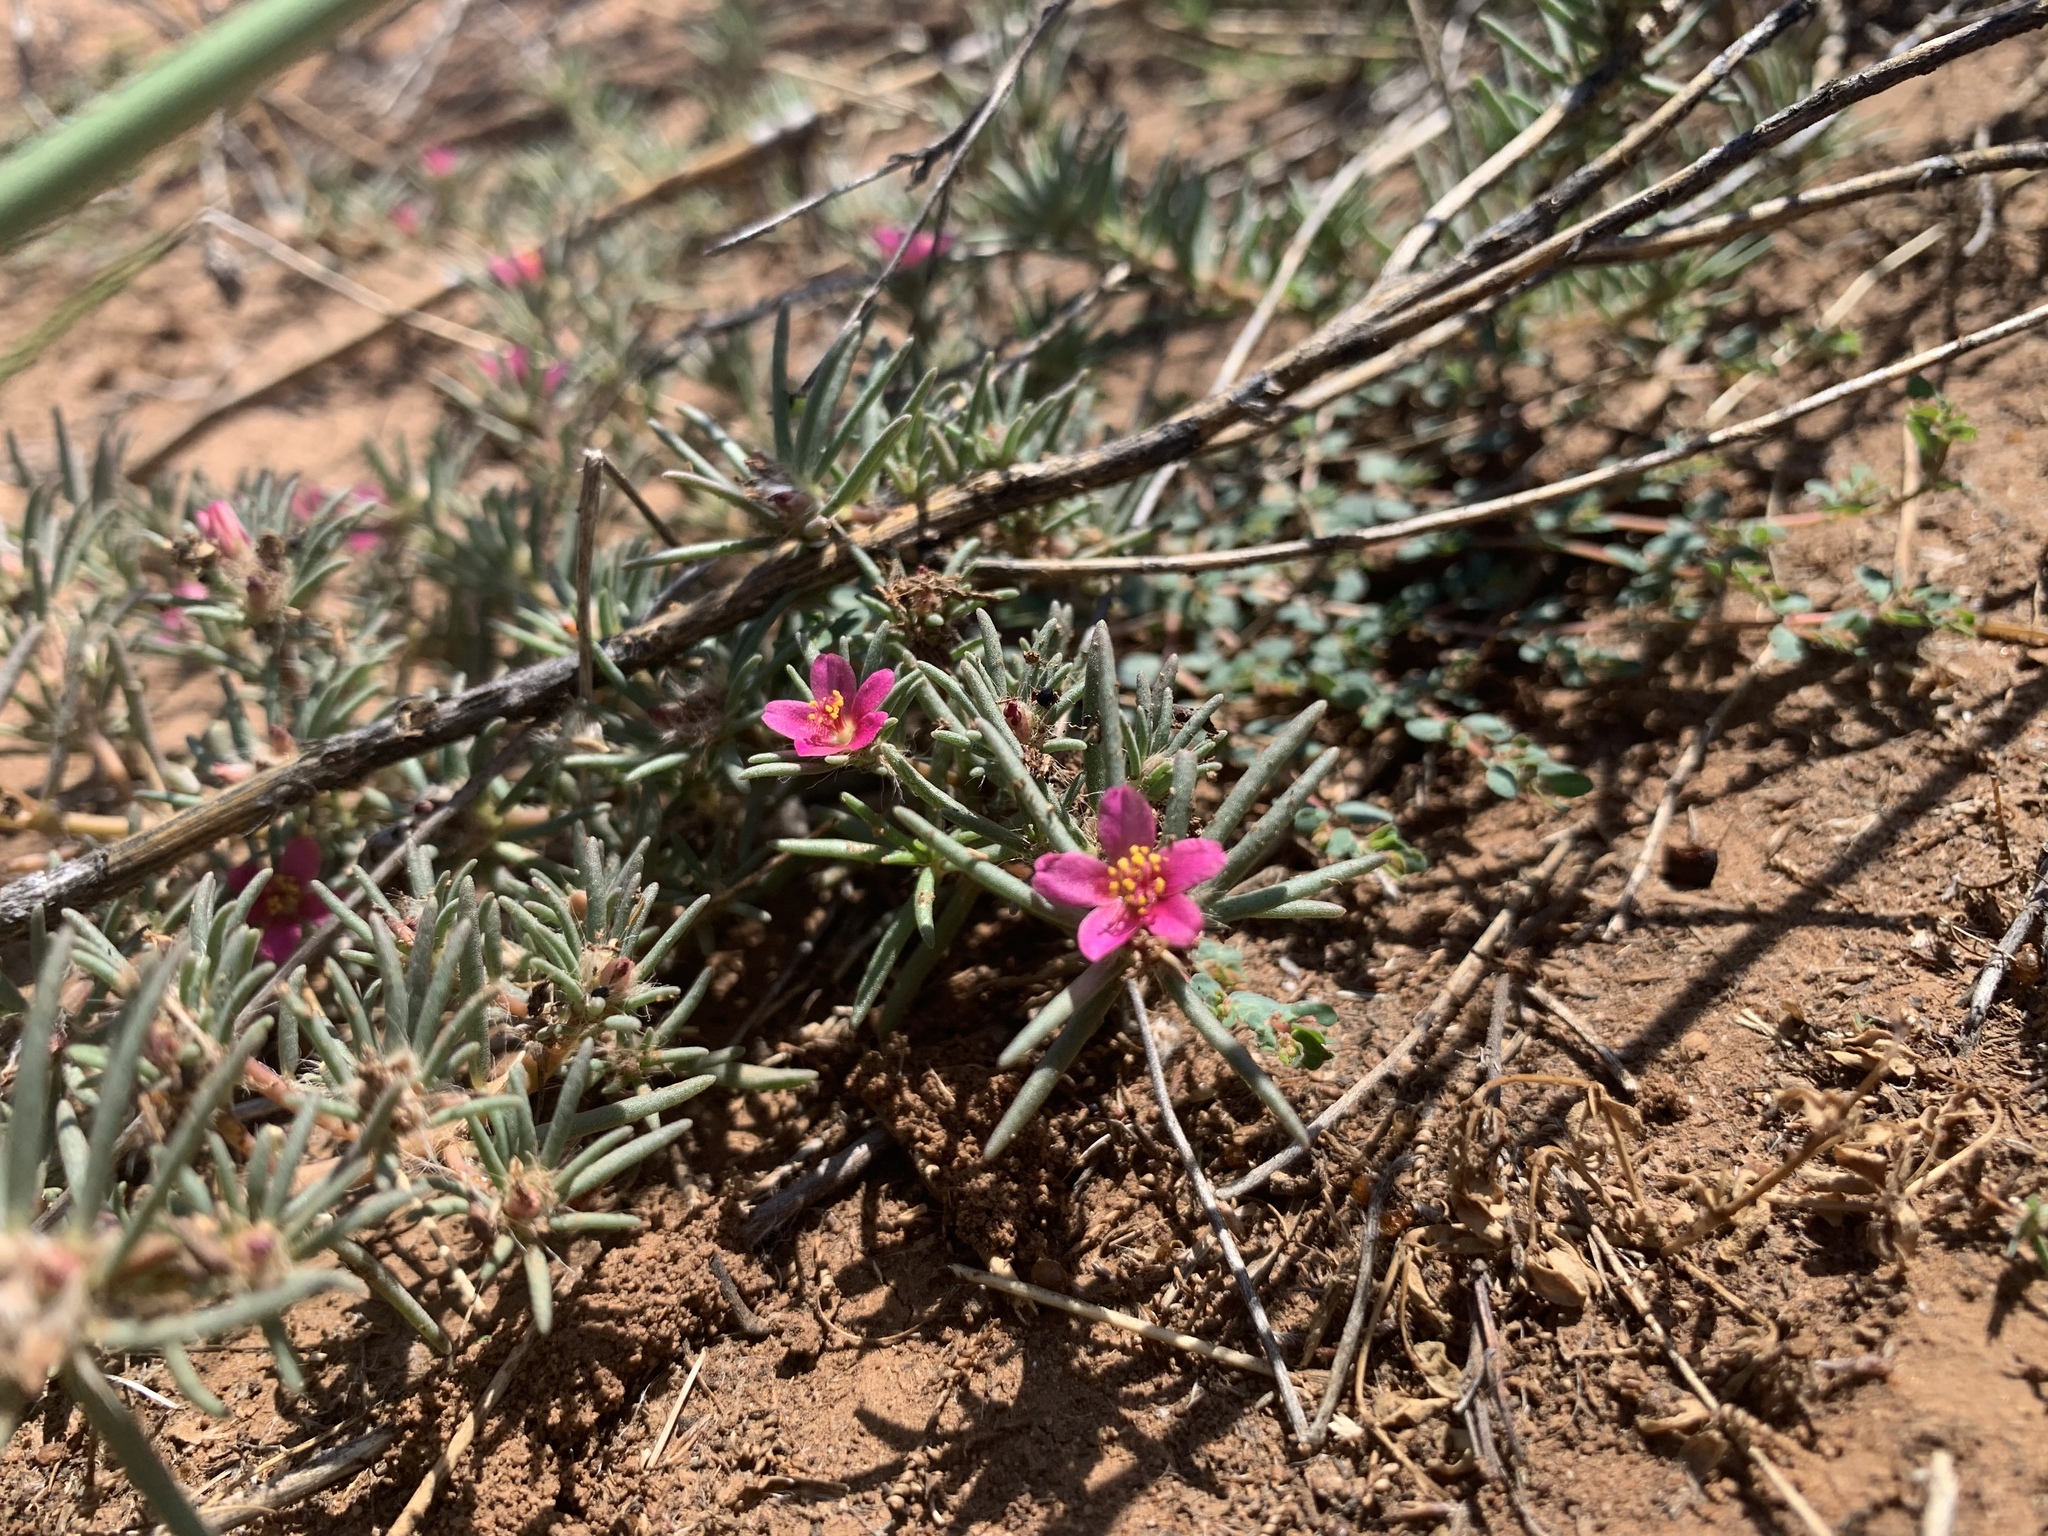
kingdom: Plantae
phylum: Tracheophyta
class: Magnoliopsida
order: Caryophyllales
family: Portulacaceae
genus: Portulaca
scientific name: Portulaca pilosa
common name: Kiss me quick
